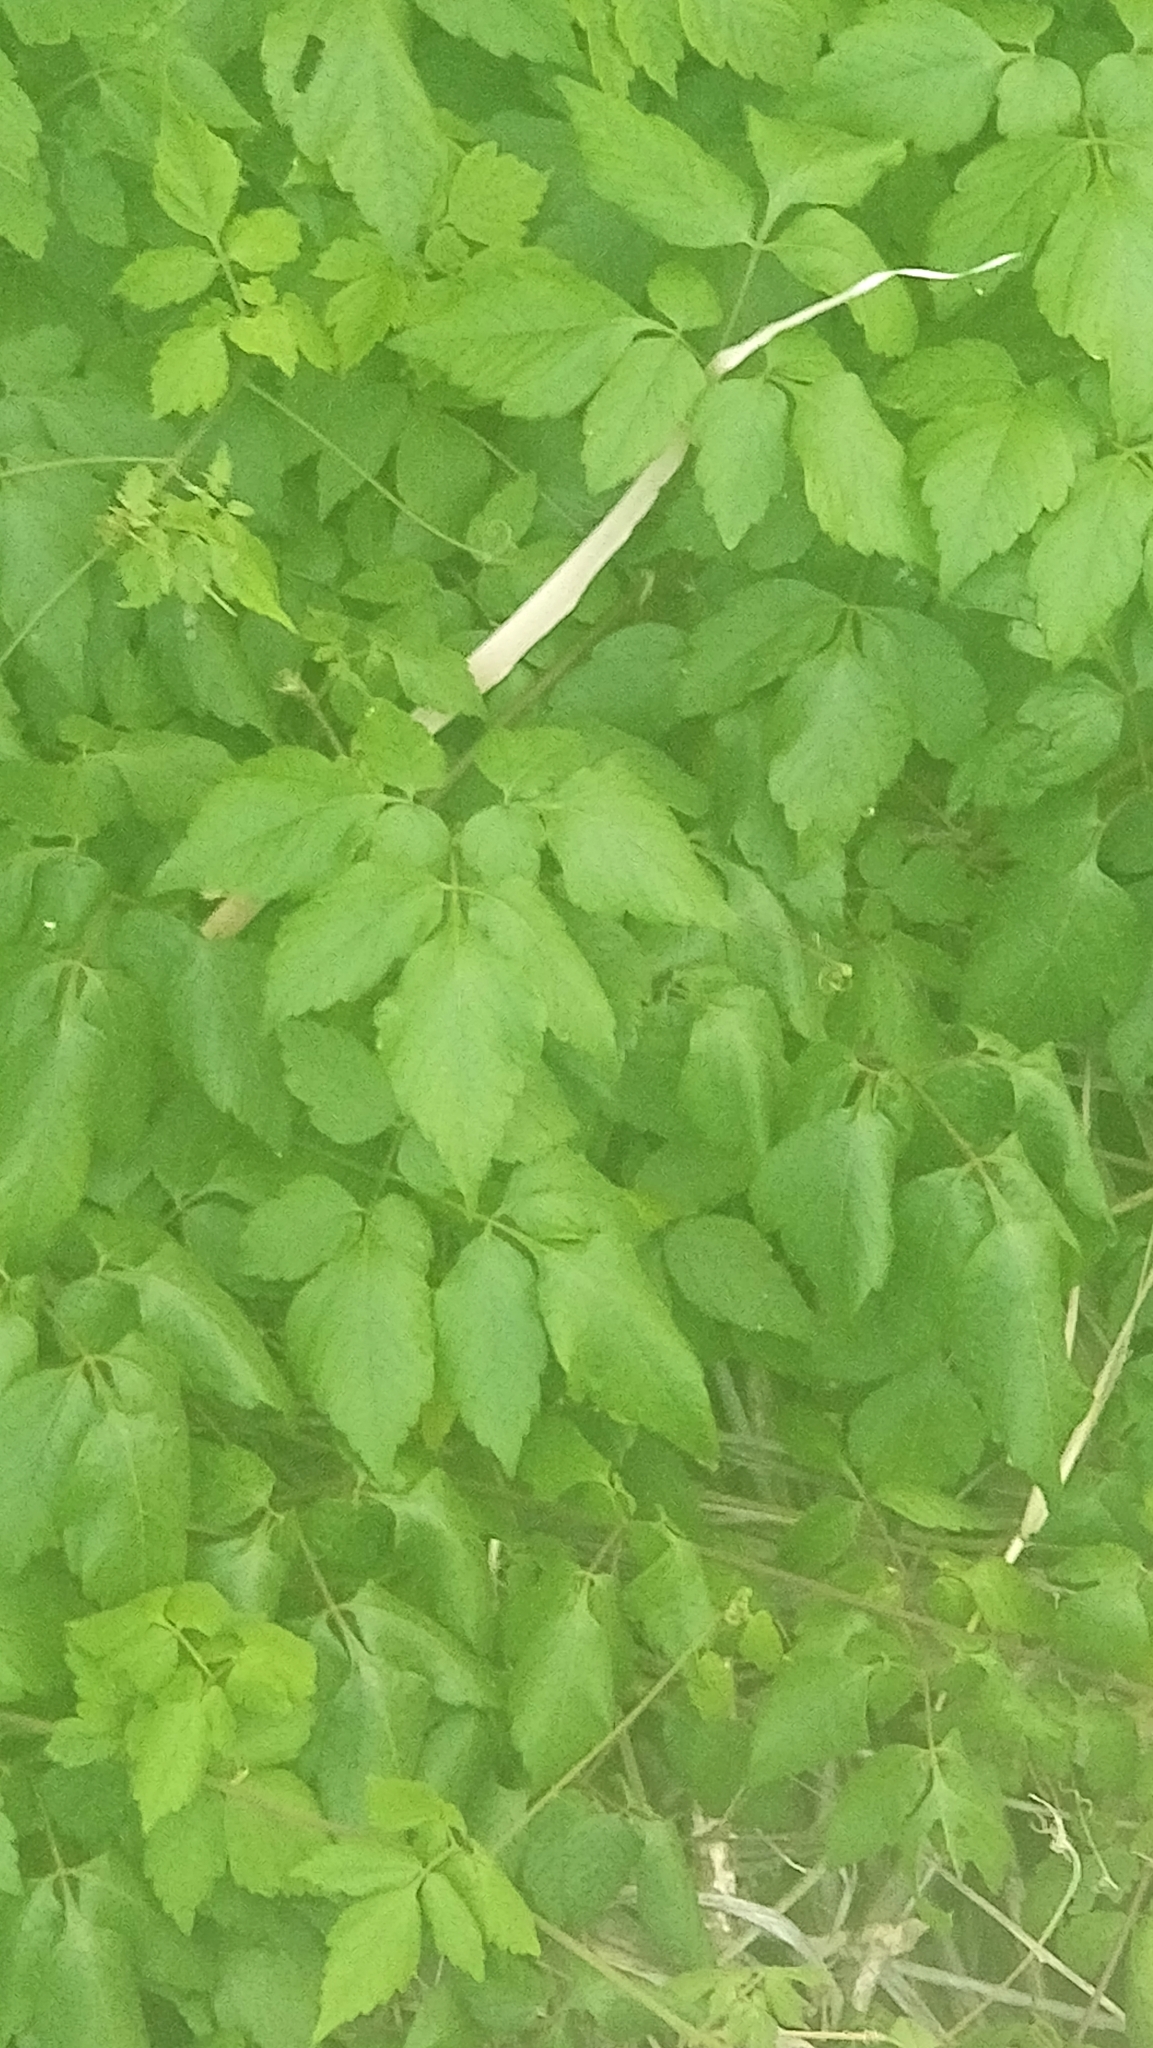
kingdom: Plantae
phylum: Tracheophyta
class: Magnoliopsida
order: Sapindales
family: Sapindaceae
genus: Cardiospermum
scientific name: Cardiospermum grandiflorum
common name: Balloon vine
